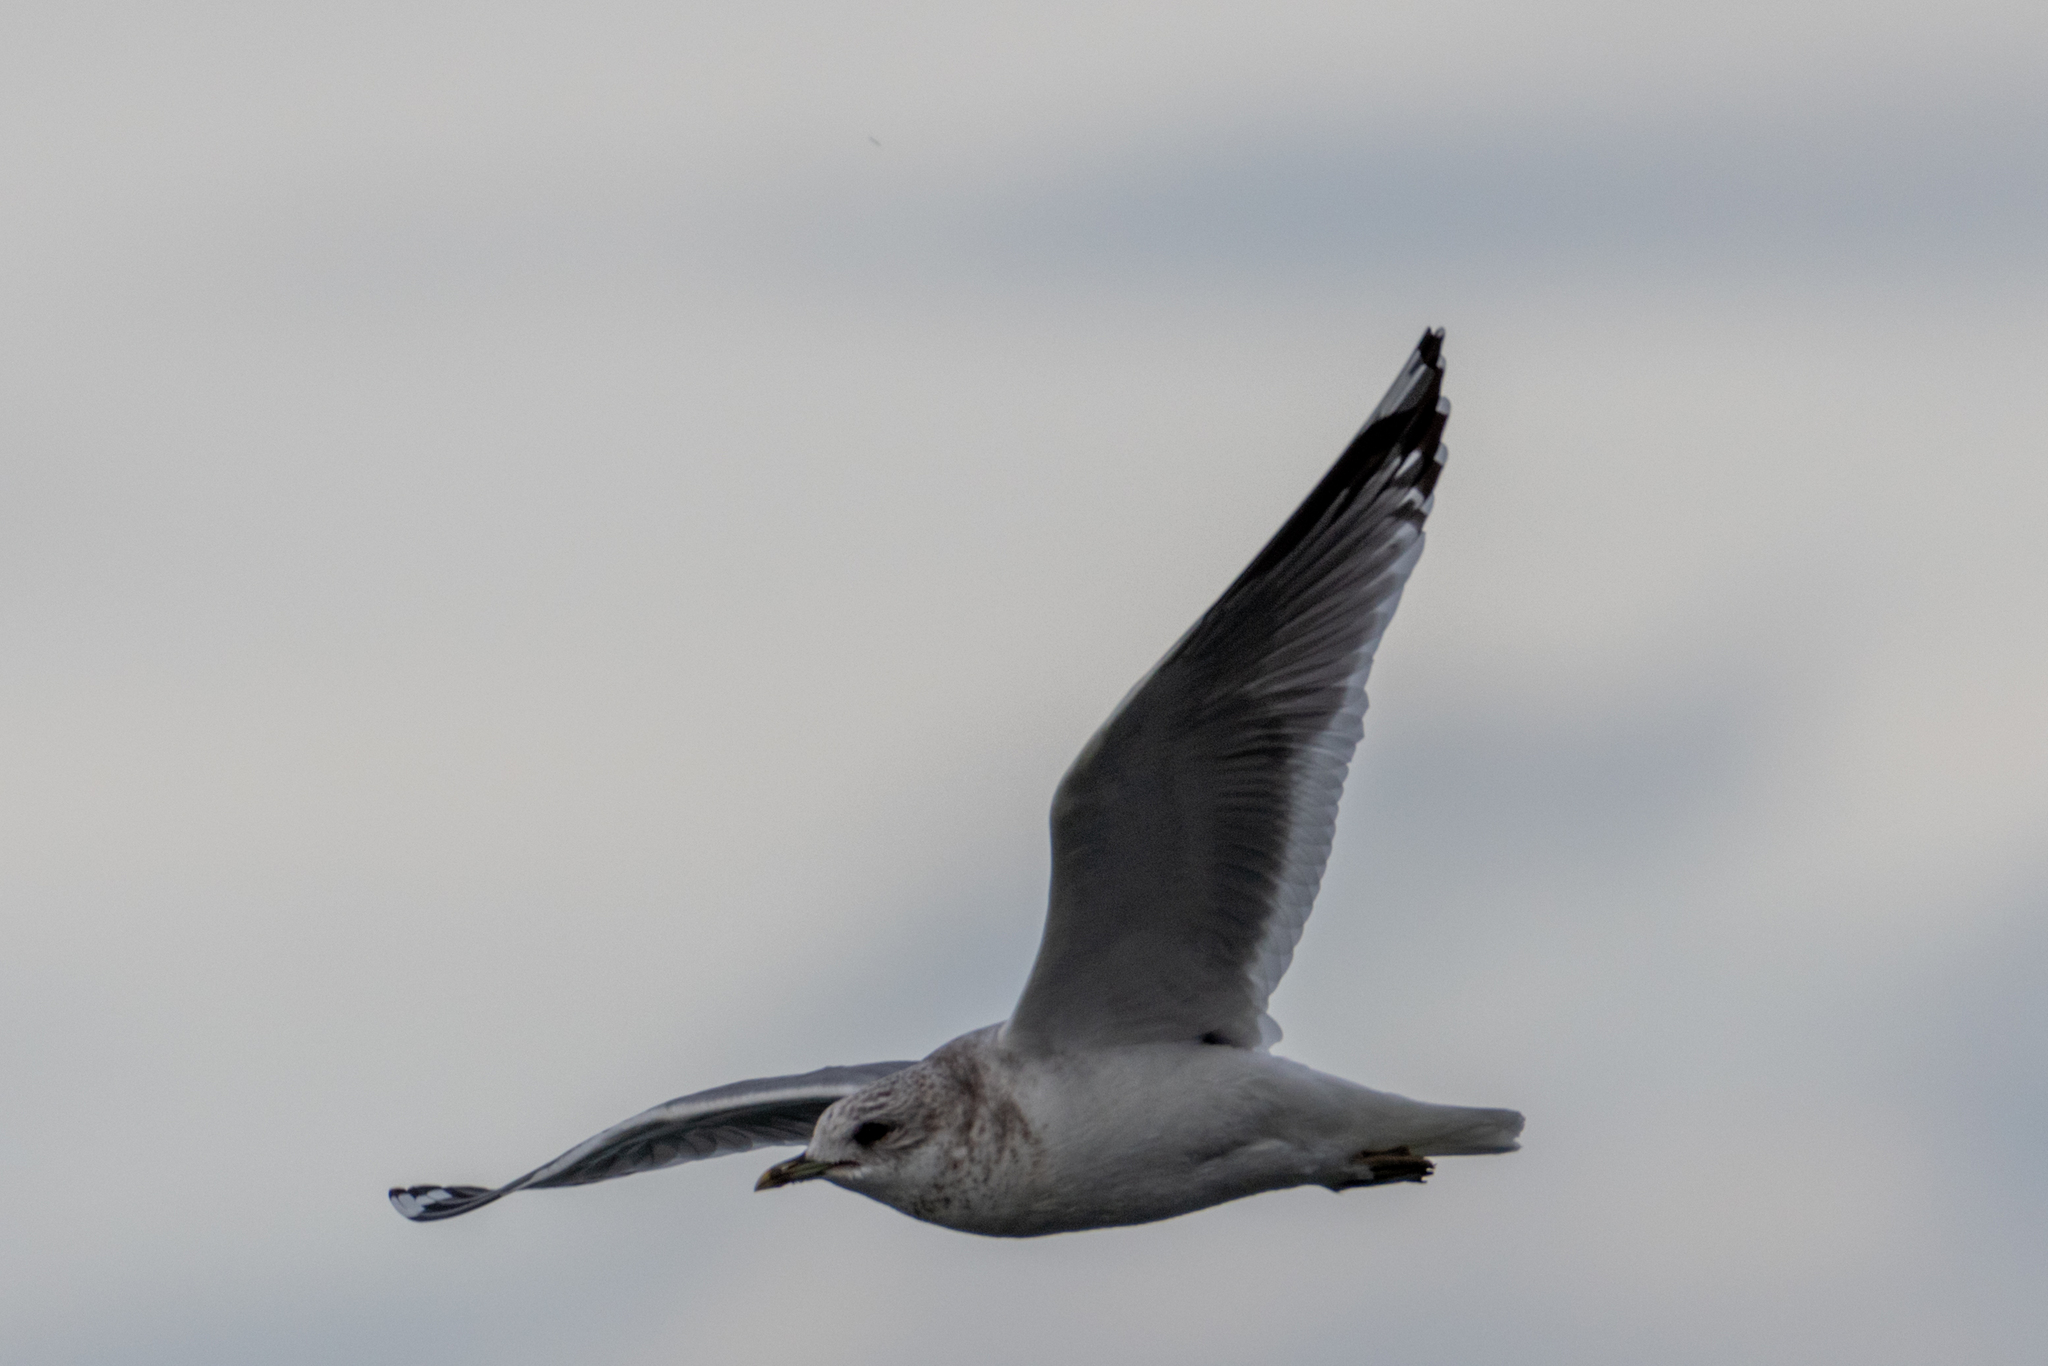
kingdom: Animalia
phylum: Chordata
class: Aves
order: Charadriiformes
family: Laridae
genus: Larus
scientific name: Larus brachyrhynchus
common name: Short-billed gull
